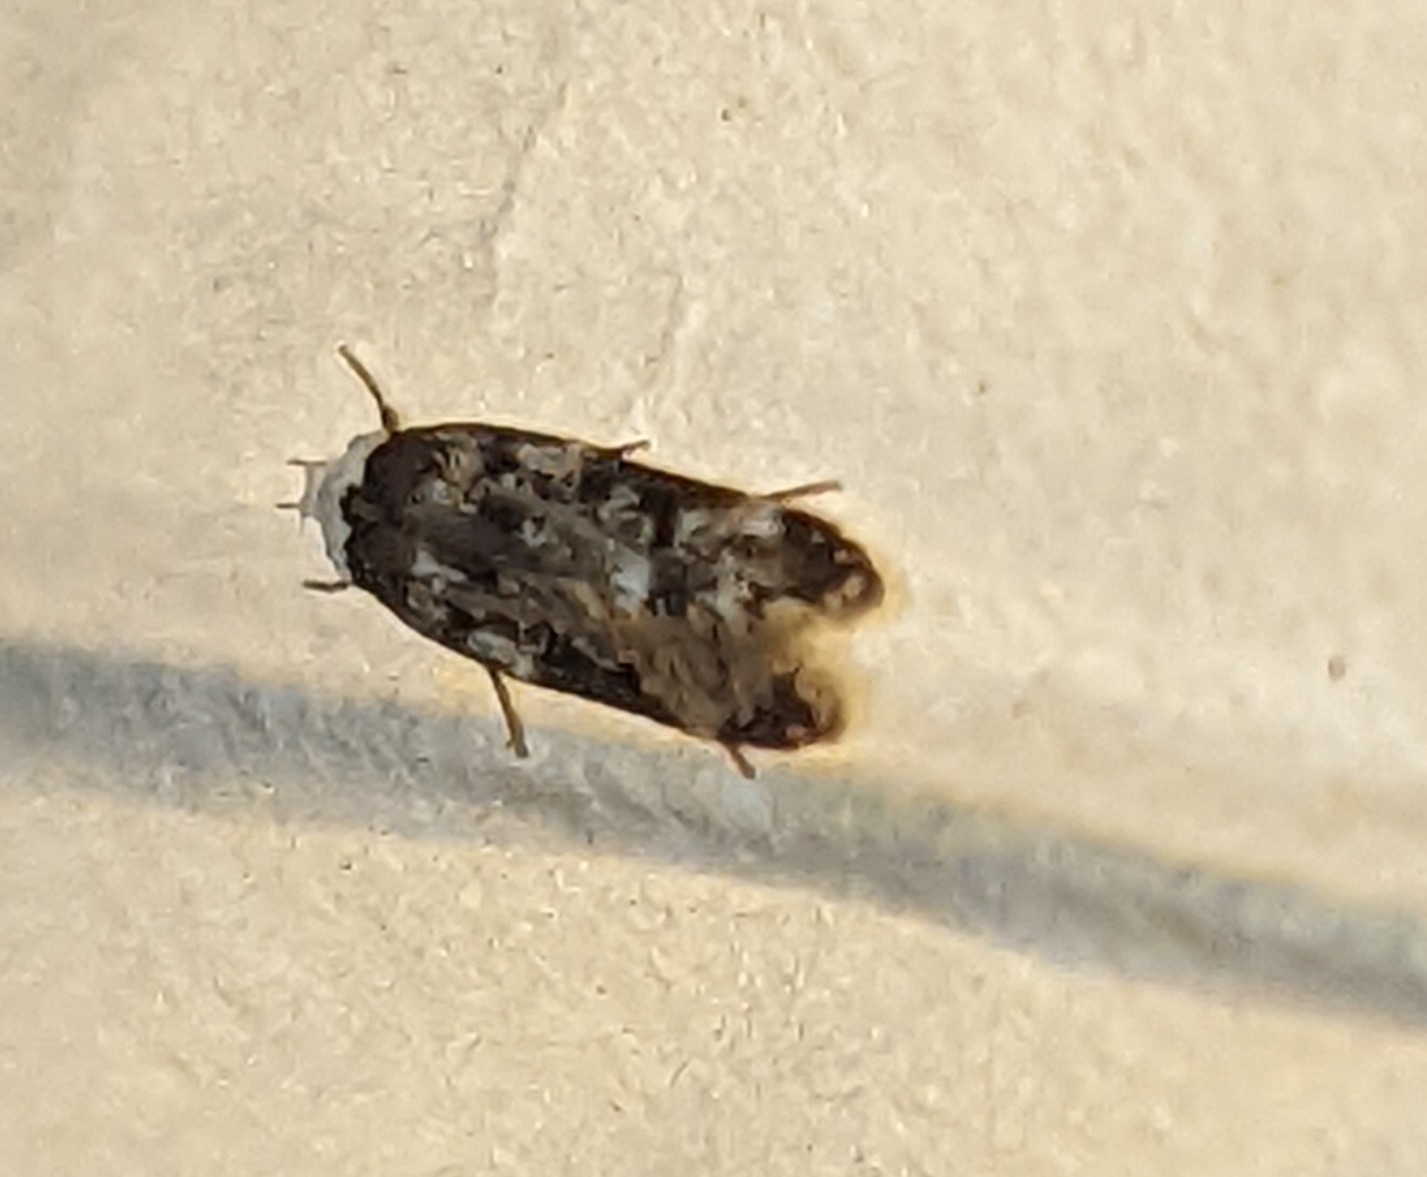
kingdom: Animalia
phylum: Arthropoda
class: Insecta
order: Lepidoptera
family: Oecophoridae
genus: Endrosis
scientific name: Endrosis sarcitrella
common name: White-shouldered house moth
